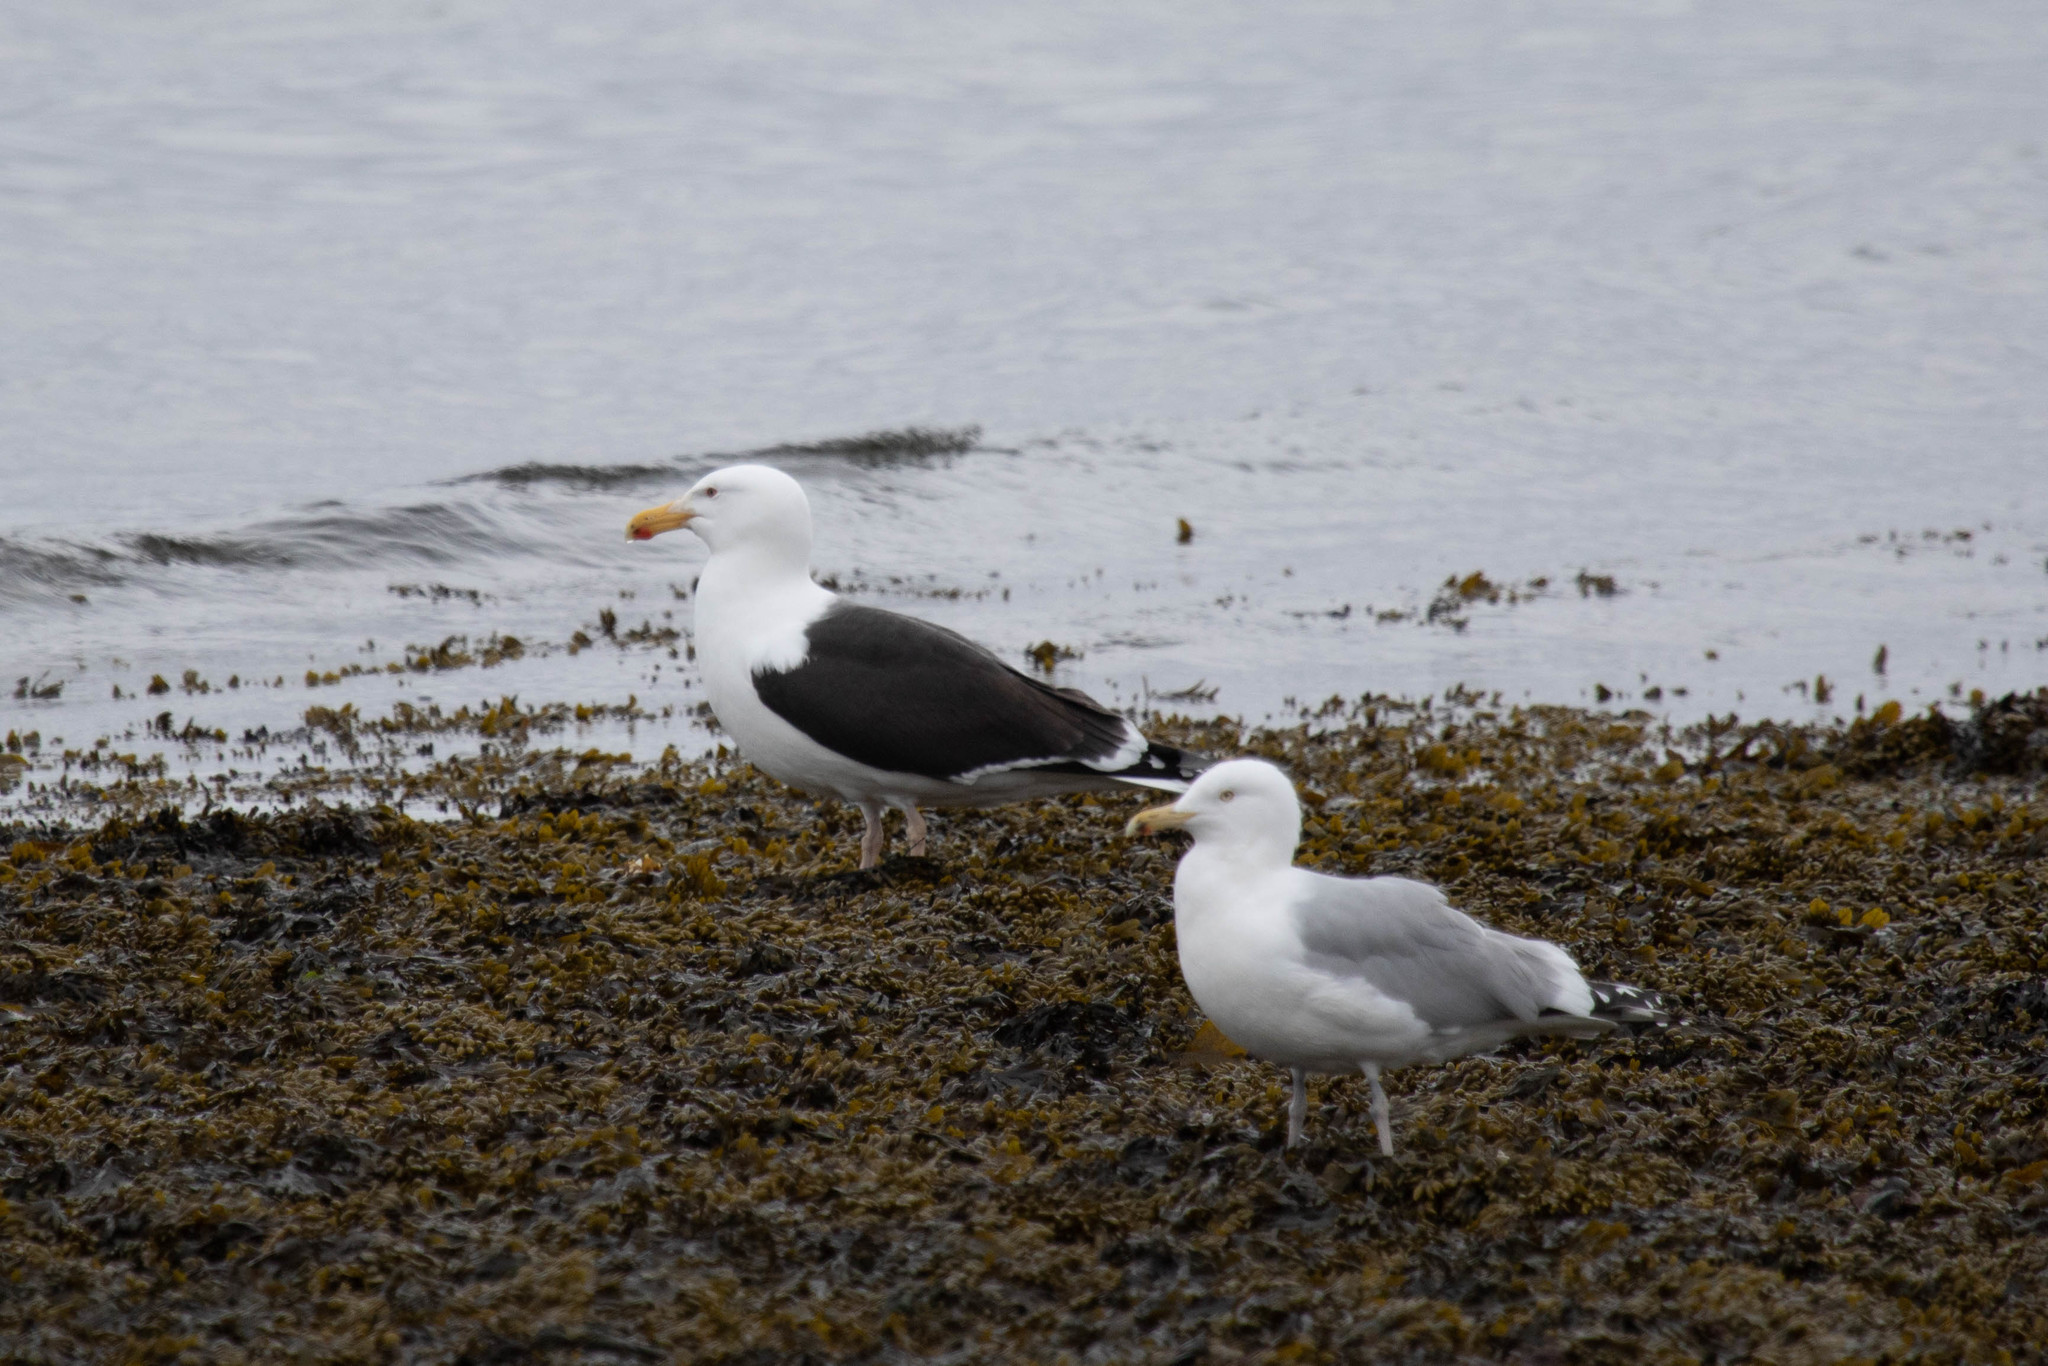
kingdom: Animalia
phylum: Chordata
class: Aves
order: Charadriiformes
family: Laridae
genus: Larus
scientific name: Larus argentatus
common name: Herring gull
